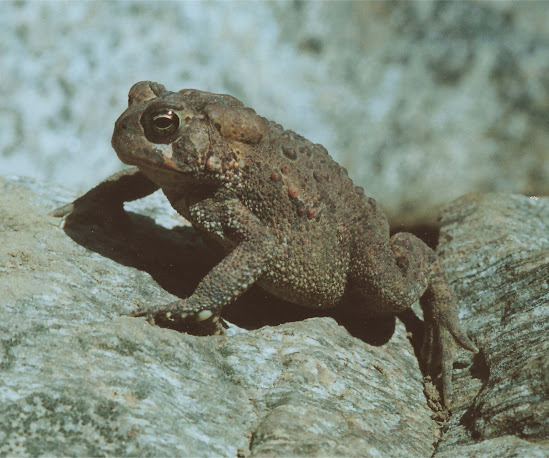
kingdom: Animalia
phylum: Chordata
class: Amphibia
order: Anura
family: Bufonidae
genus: Anaxyrus
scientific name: Anaxyrus americanus
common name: American toad
